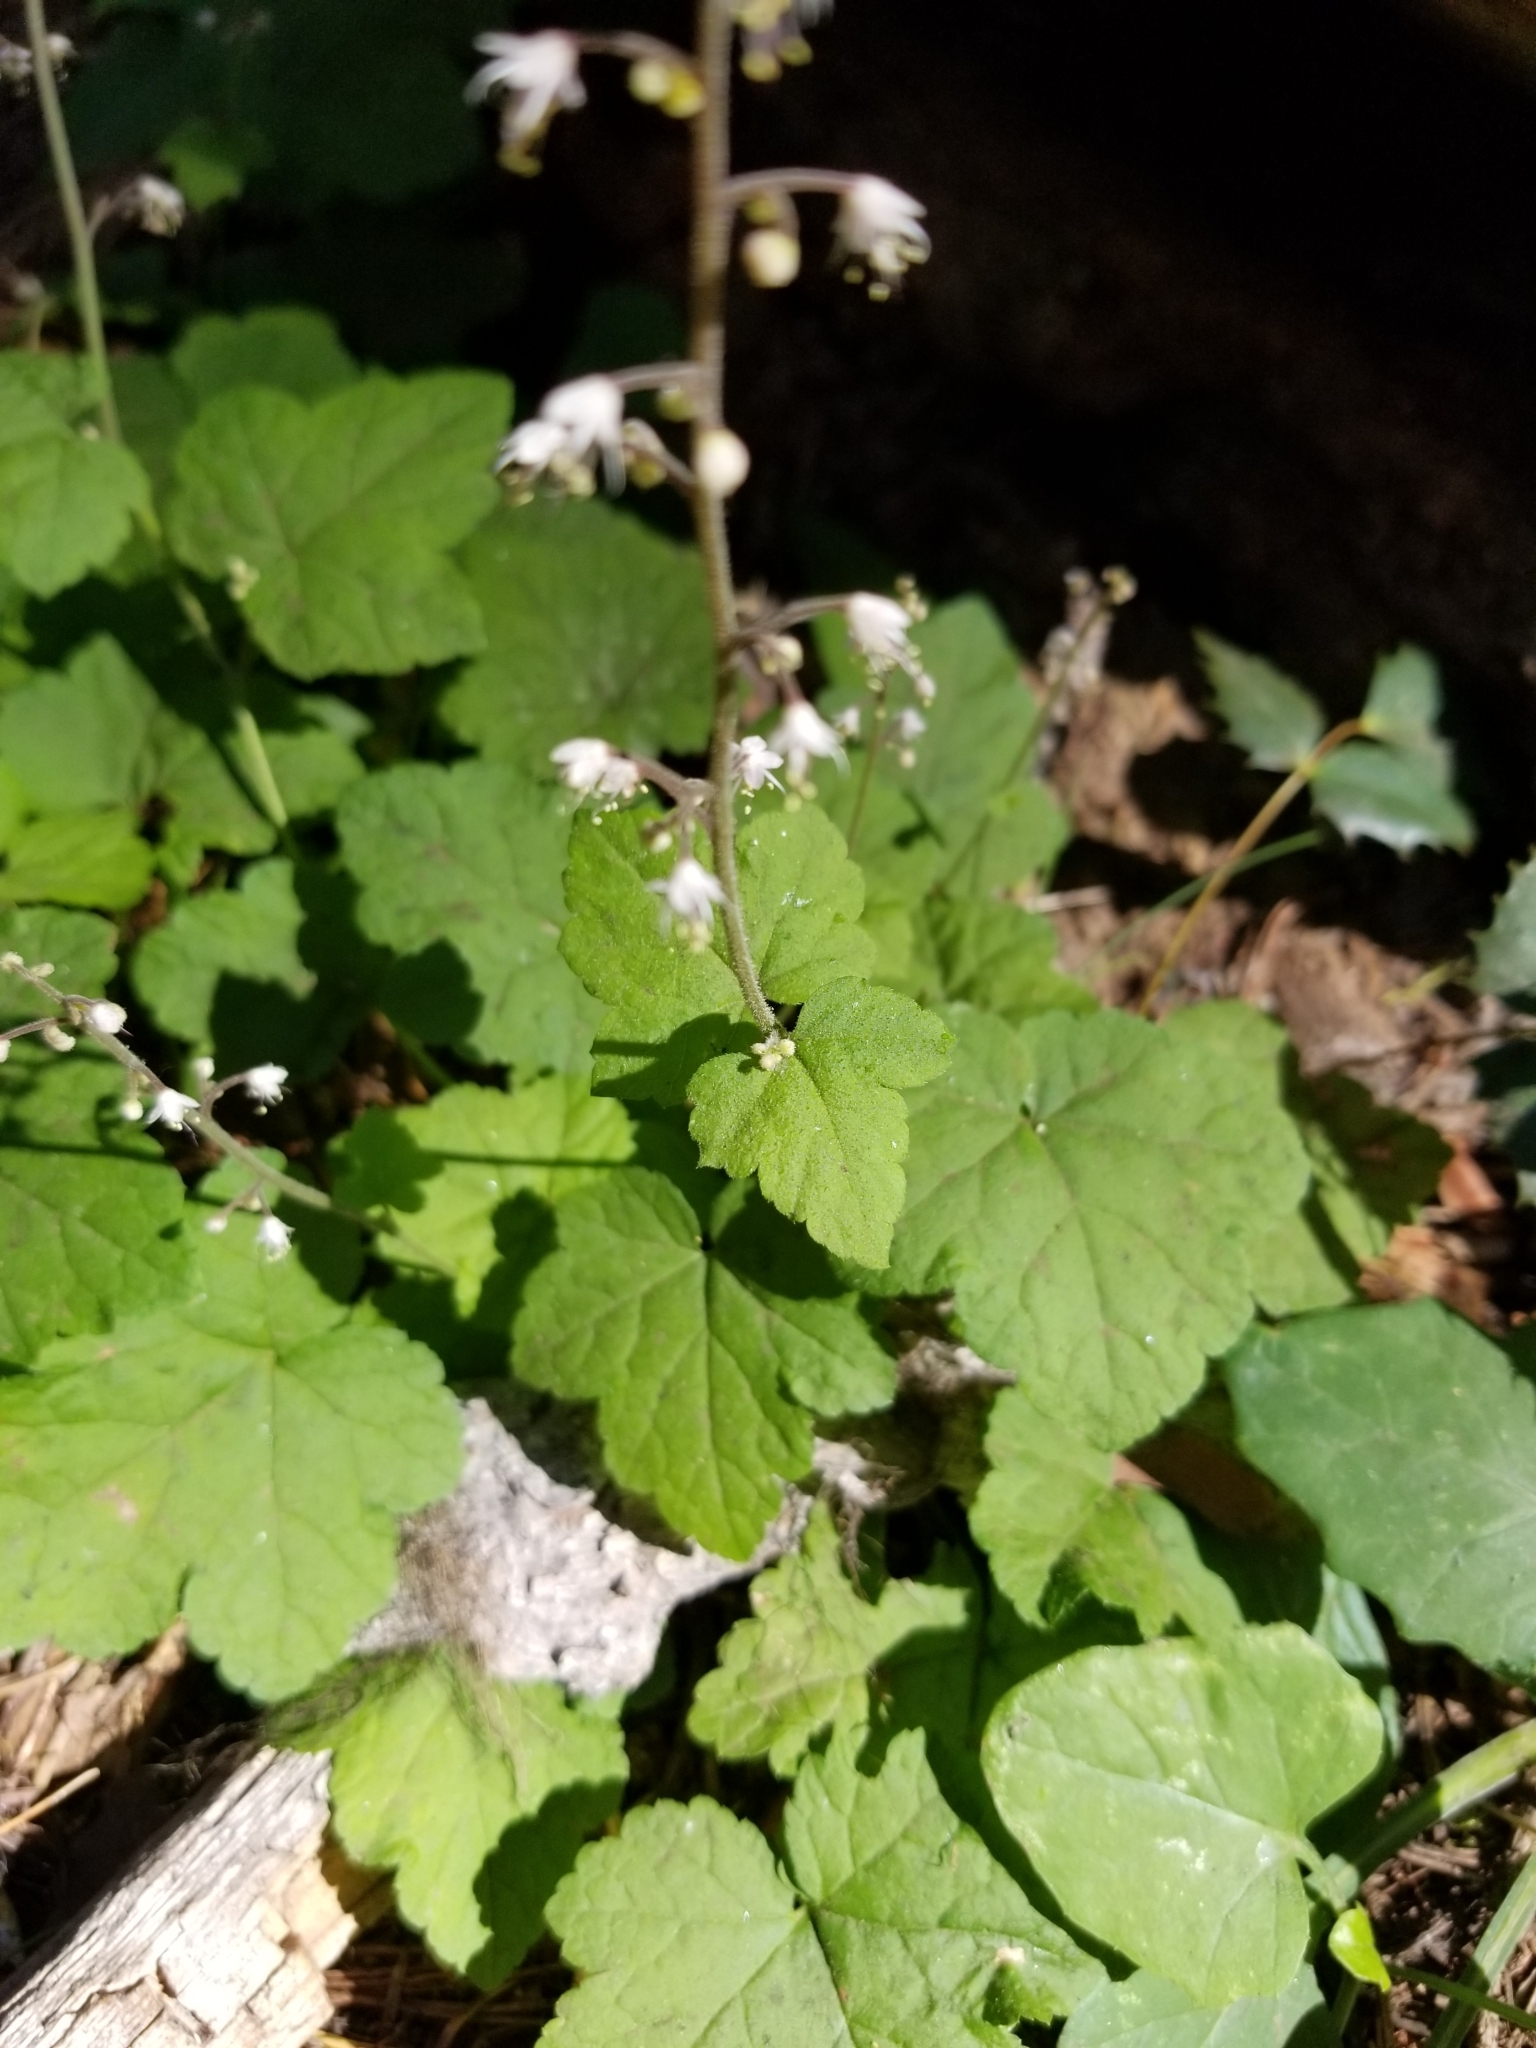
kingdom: Plantae
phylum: Tracheophyta
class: Magnoliopsida
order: Saxifragales
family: Saxifragaceae
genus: Tiarella
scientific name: Tiarella trifoliata
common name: Sugar-scoop
